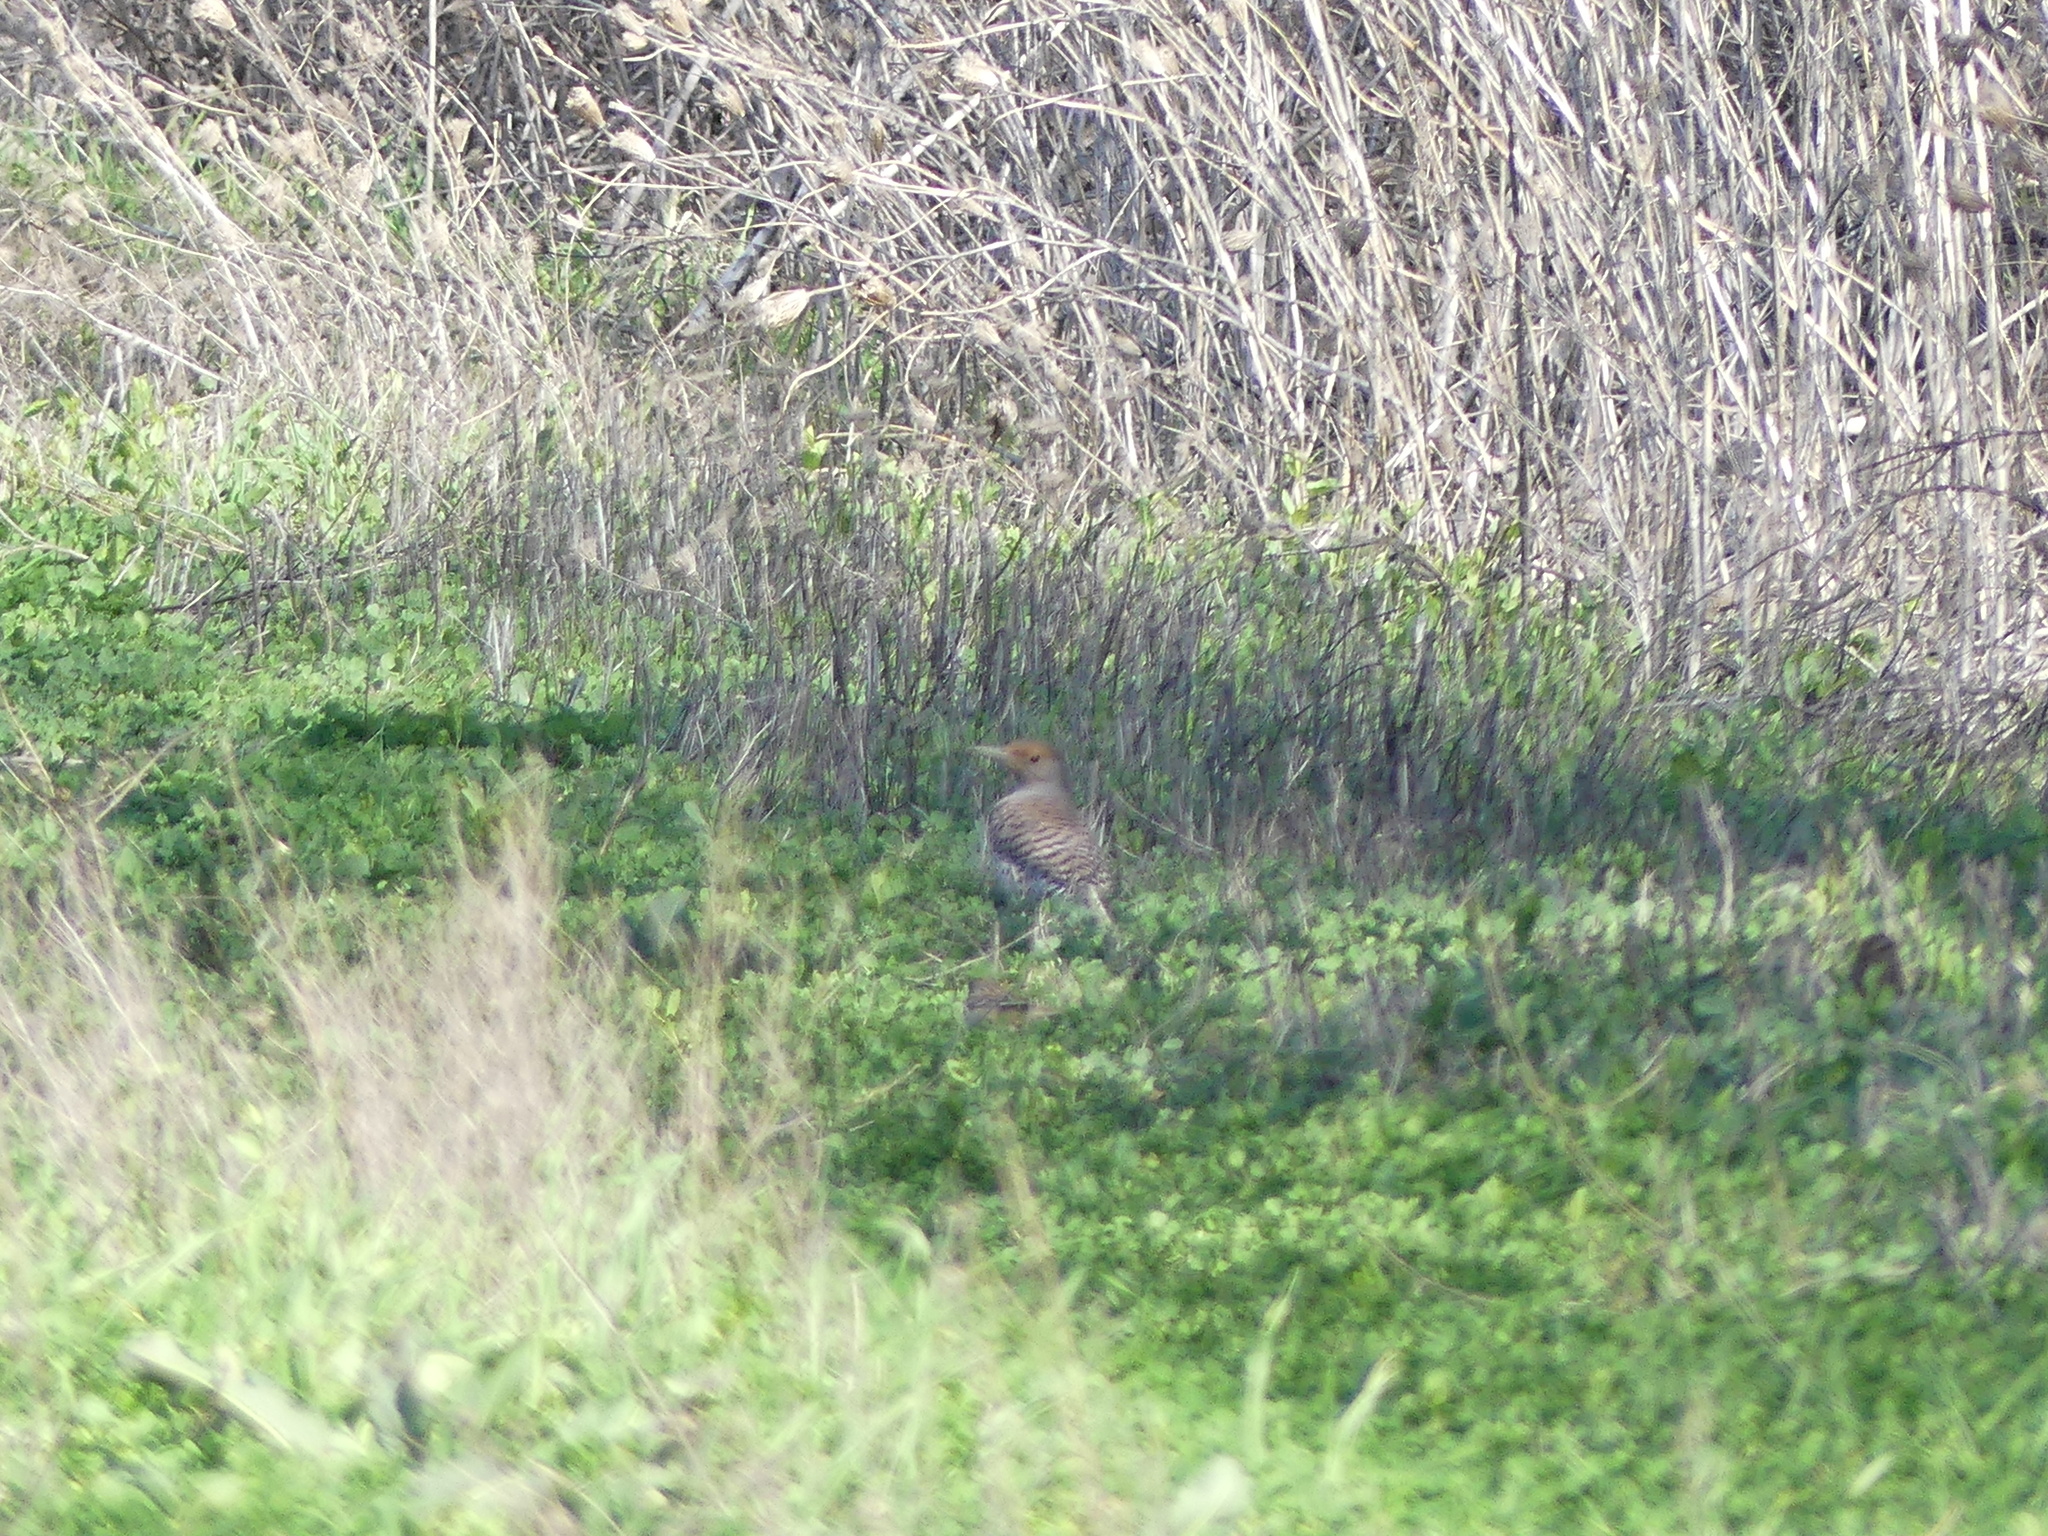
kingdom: Animalia
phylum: Chordata
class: Aves
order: Piciformes
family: Picidae
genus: Colaptes
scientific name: Colaptes auratus
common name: Northern flicker
